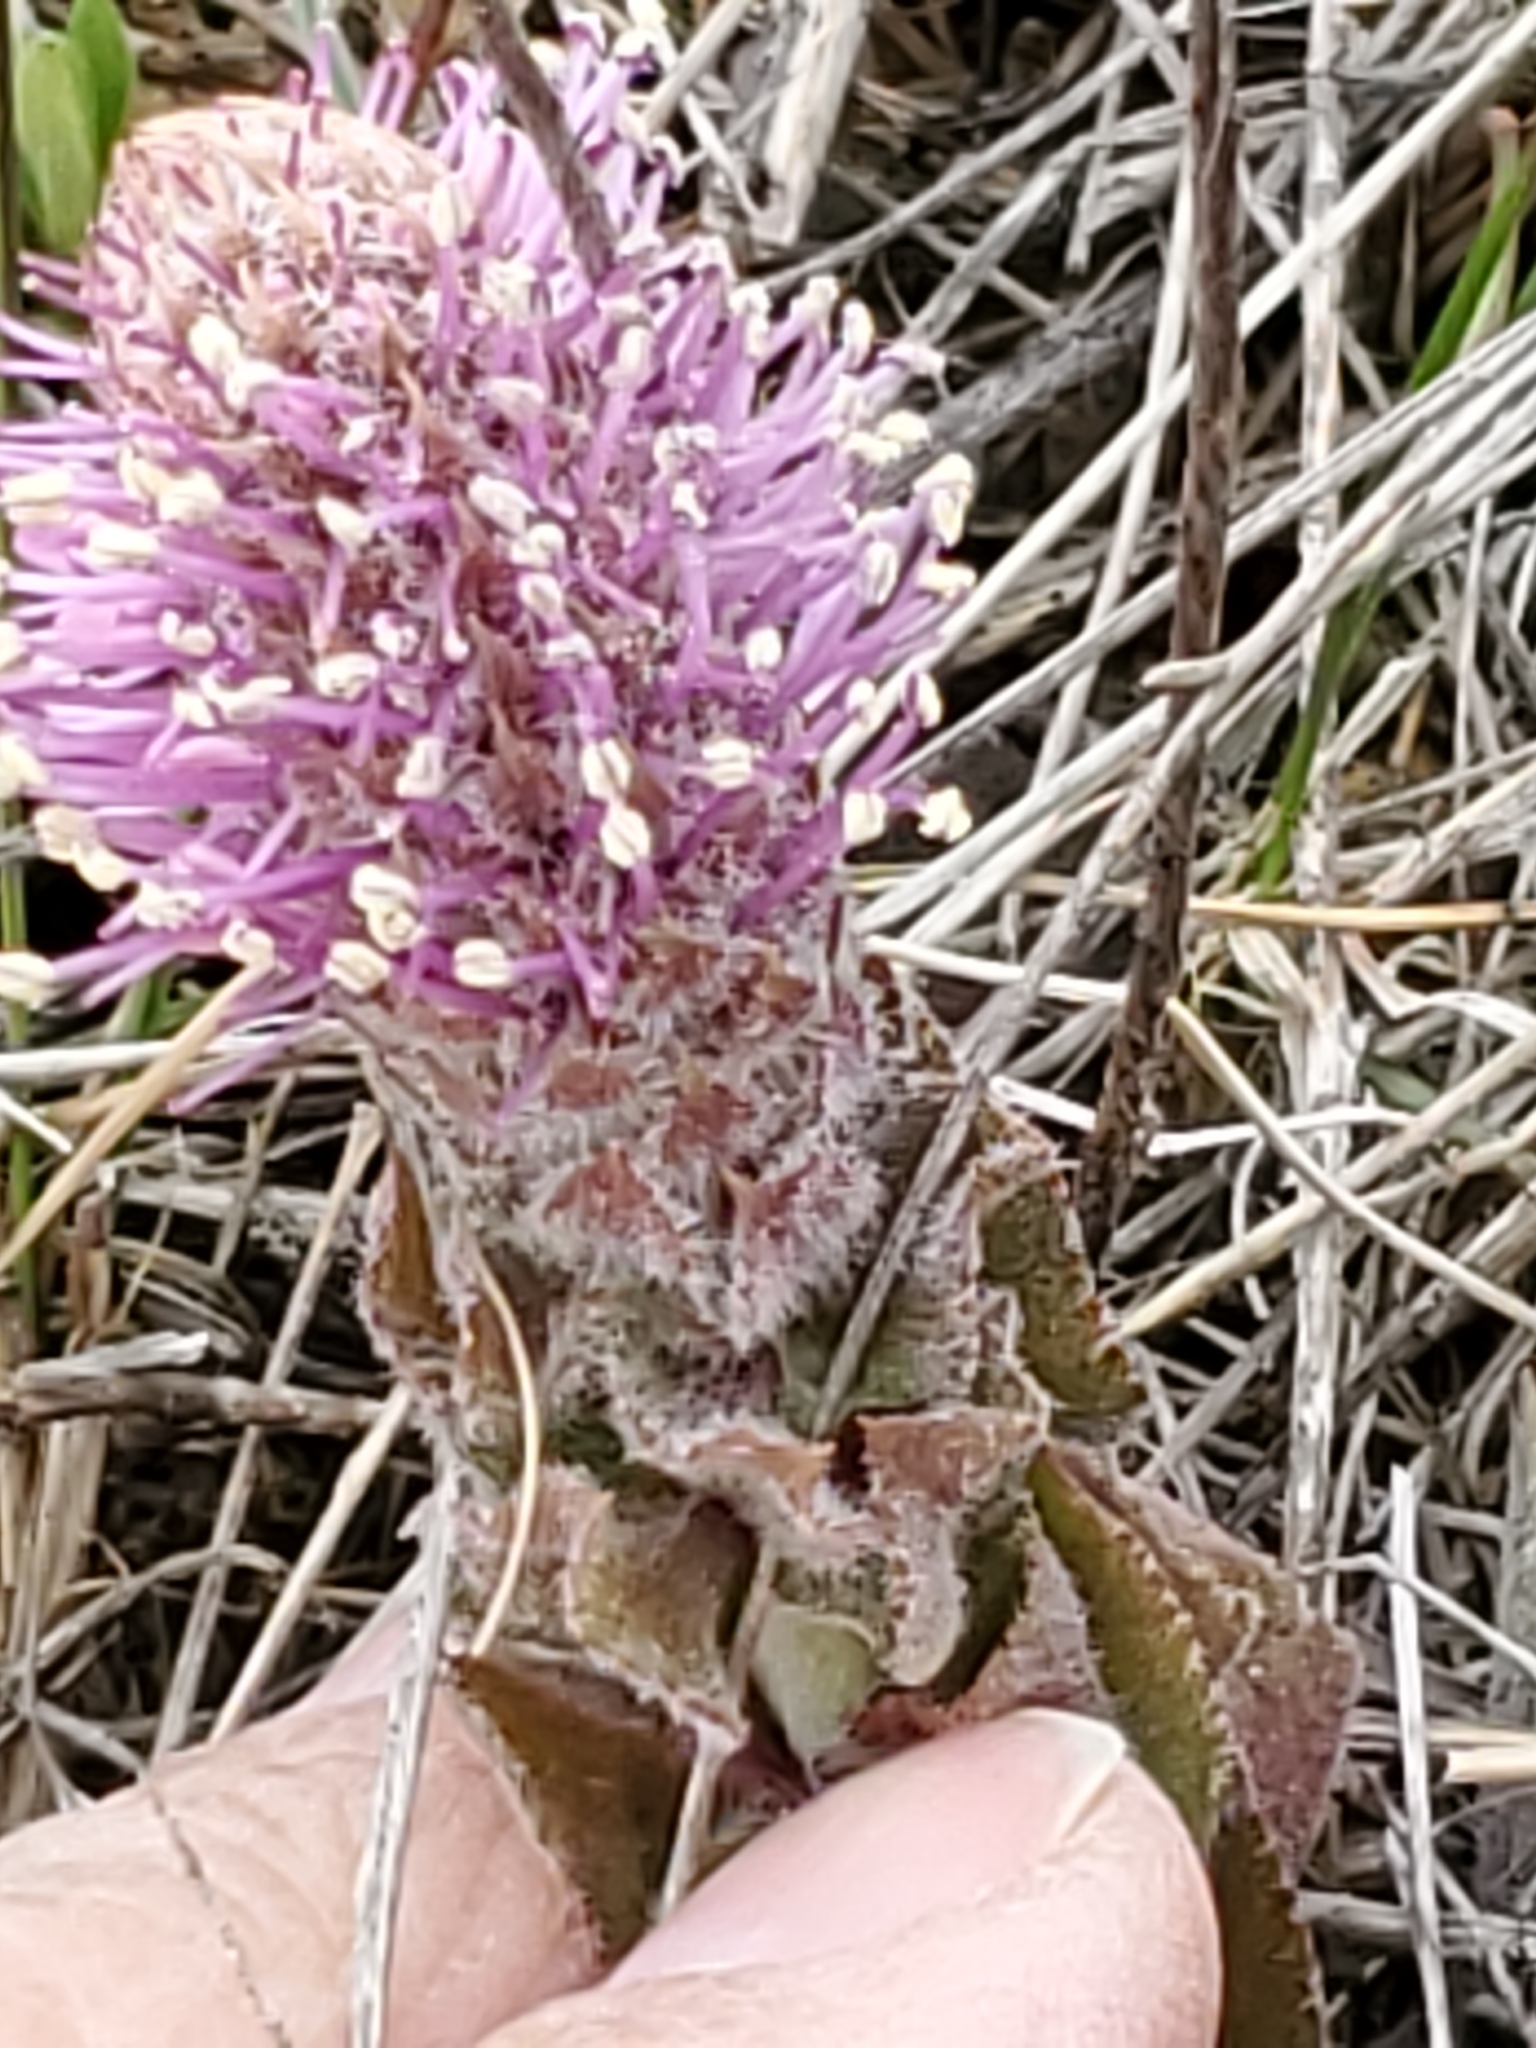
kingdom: Plantae
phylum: Tracheophyta
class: Magnoliopsida
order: Lamiales
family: Plantaginaceae
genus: Synthyris
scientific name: Synthyris wyomingensis
